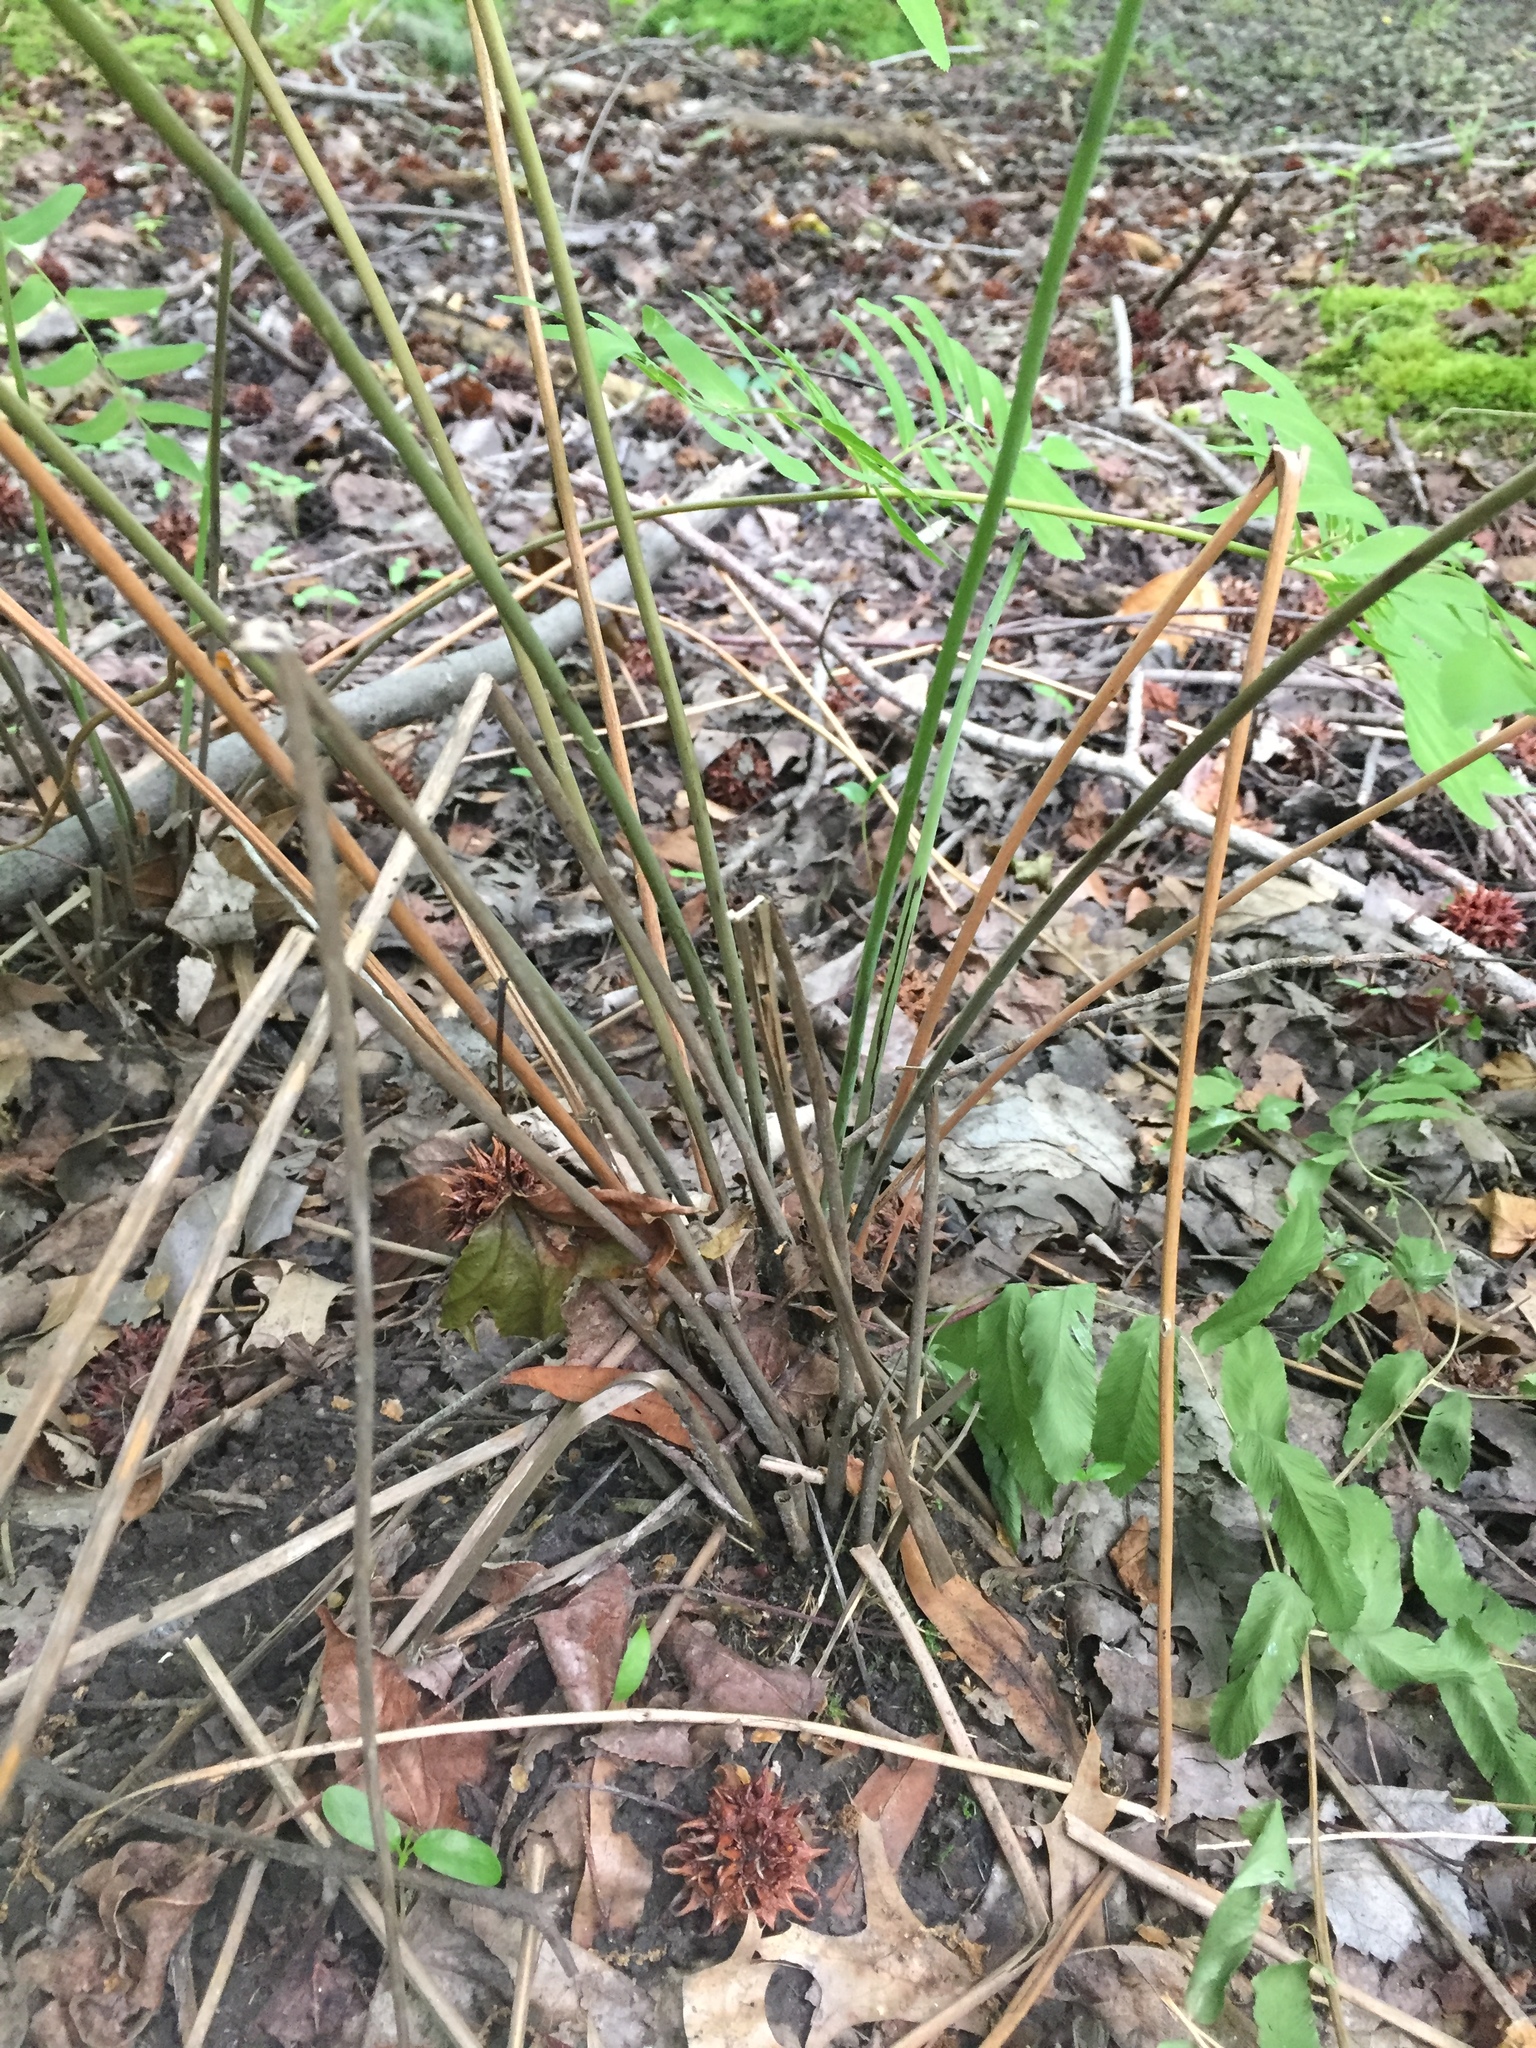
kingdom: Plantae
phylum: Tracheophyta
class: Polypodiopsida
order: Osmundales
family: Osmundaceae
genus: Osmunda
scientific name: Osmunda spectabilis
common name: American royal fern
